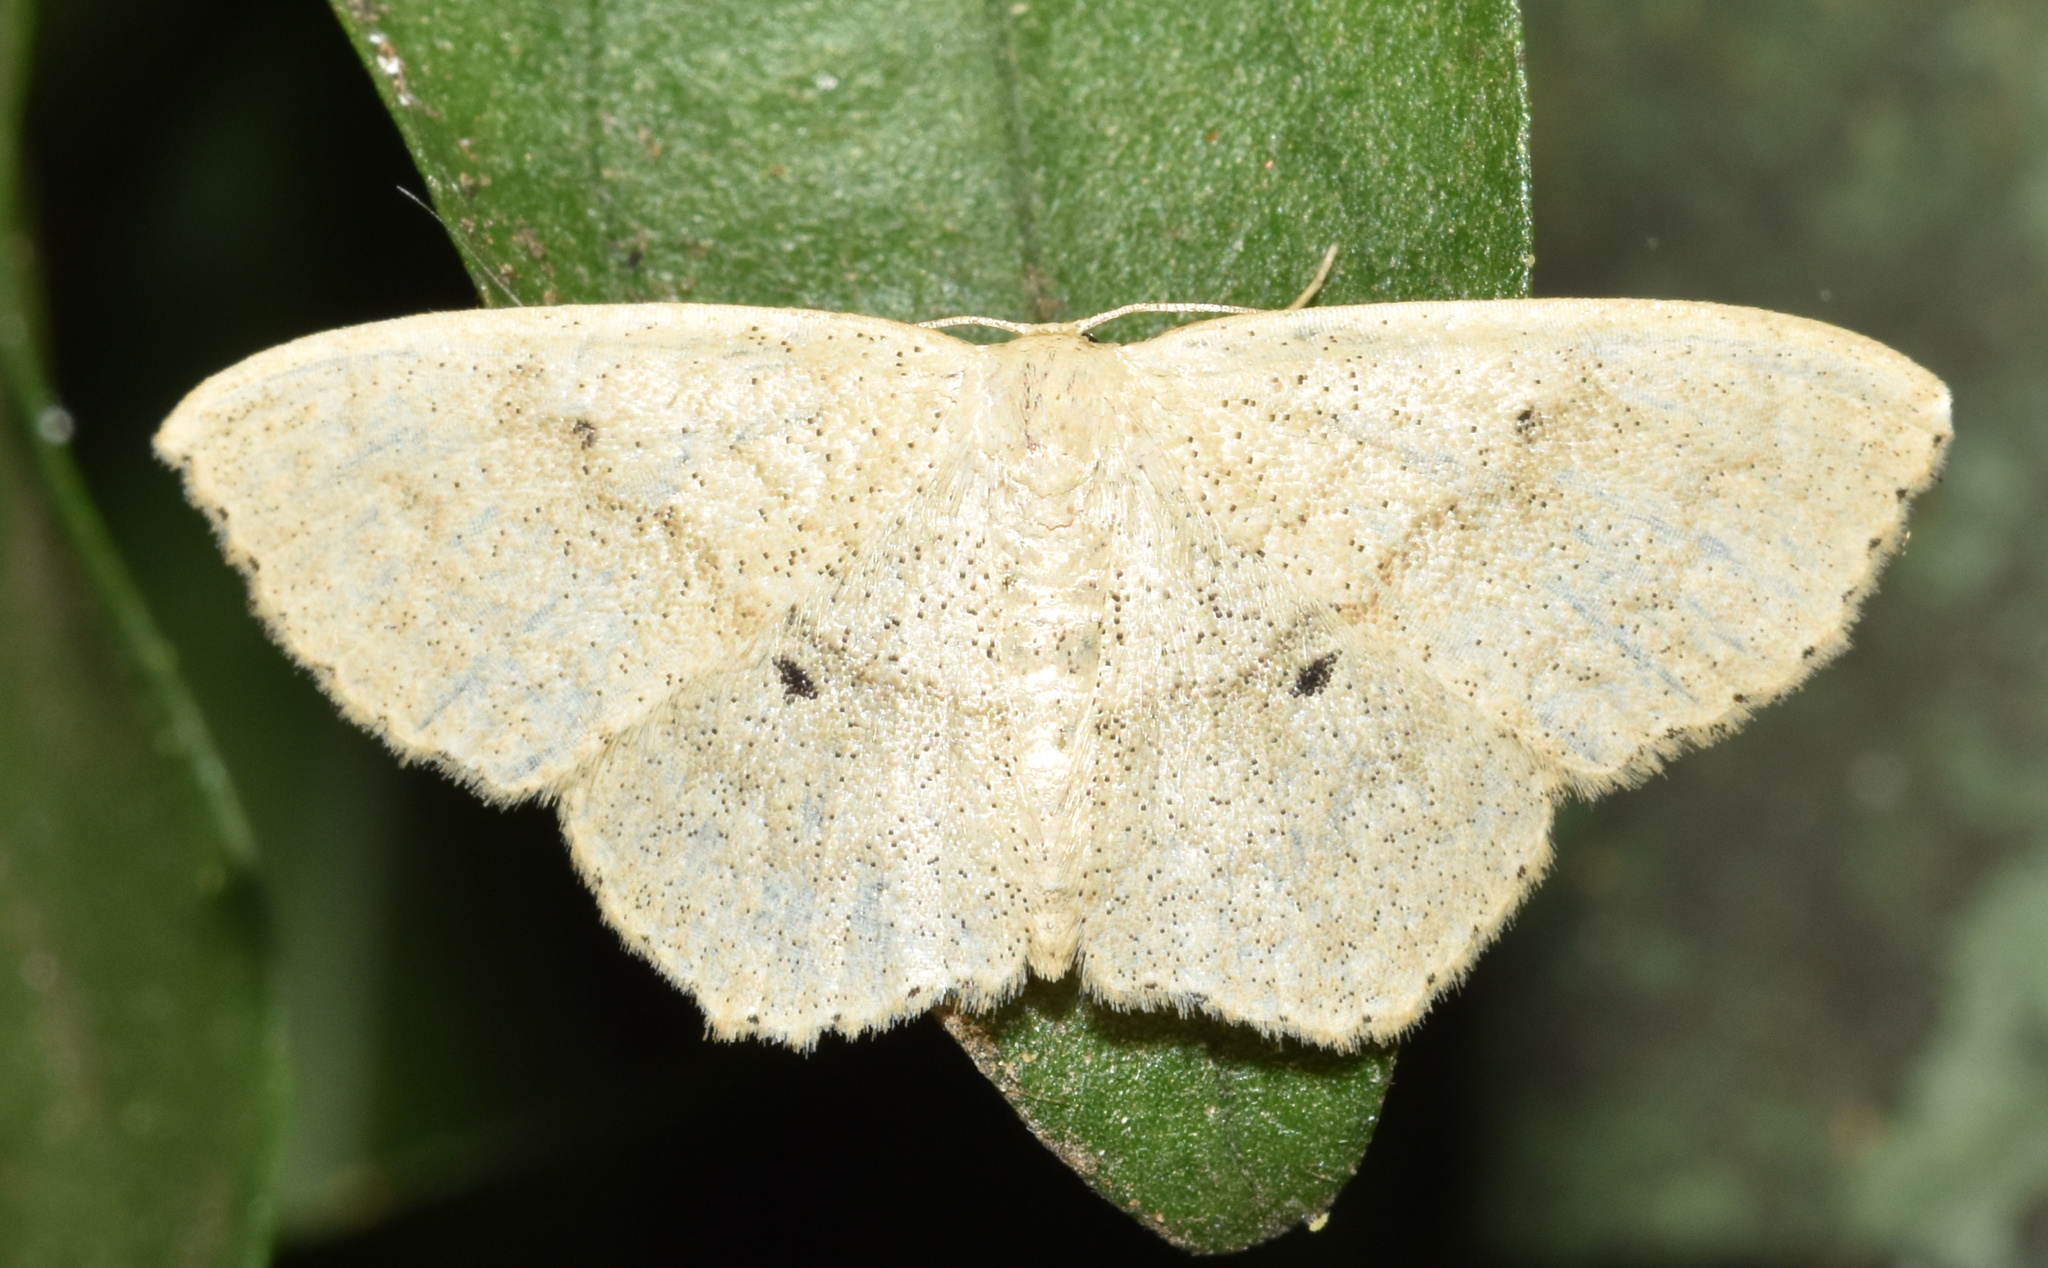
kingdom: Animalia
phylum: Arthropoda
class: Insecta
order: Lepidoptera
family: Geometridae
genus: Scopula
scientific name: Scopula opperta
